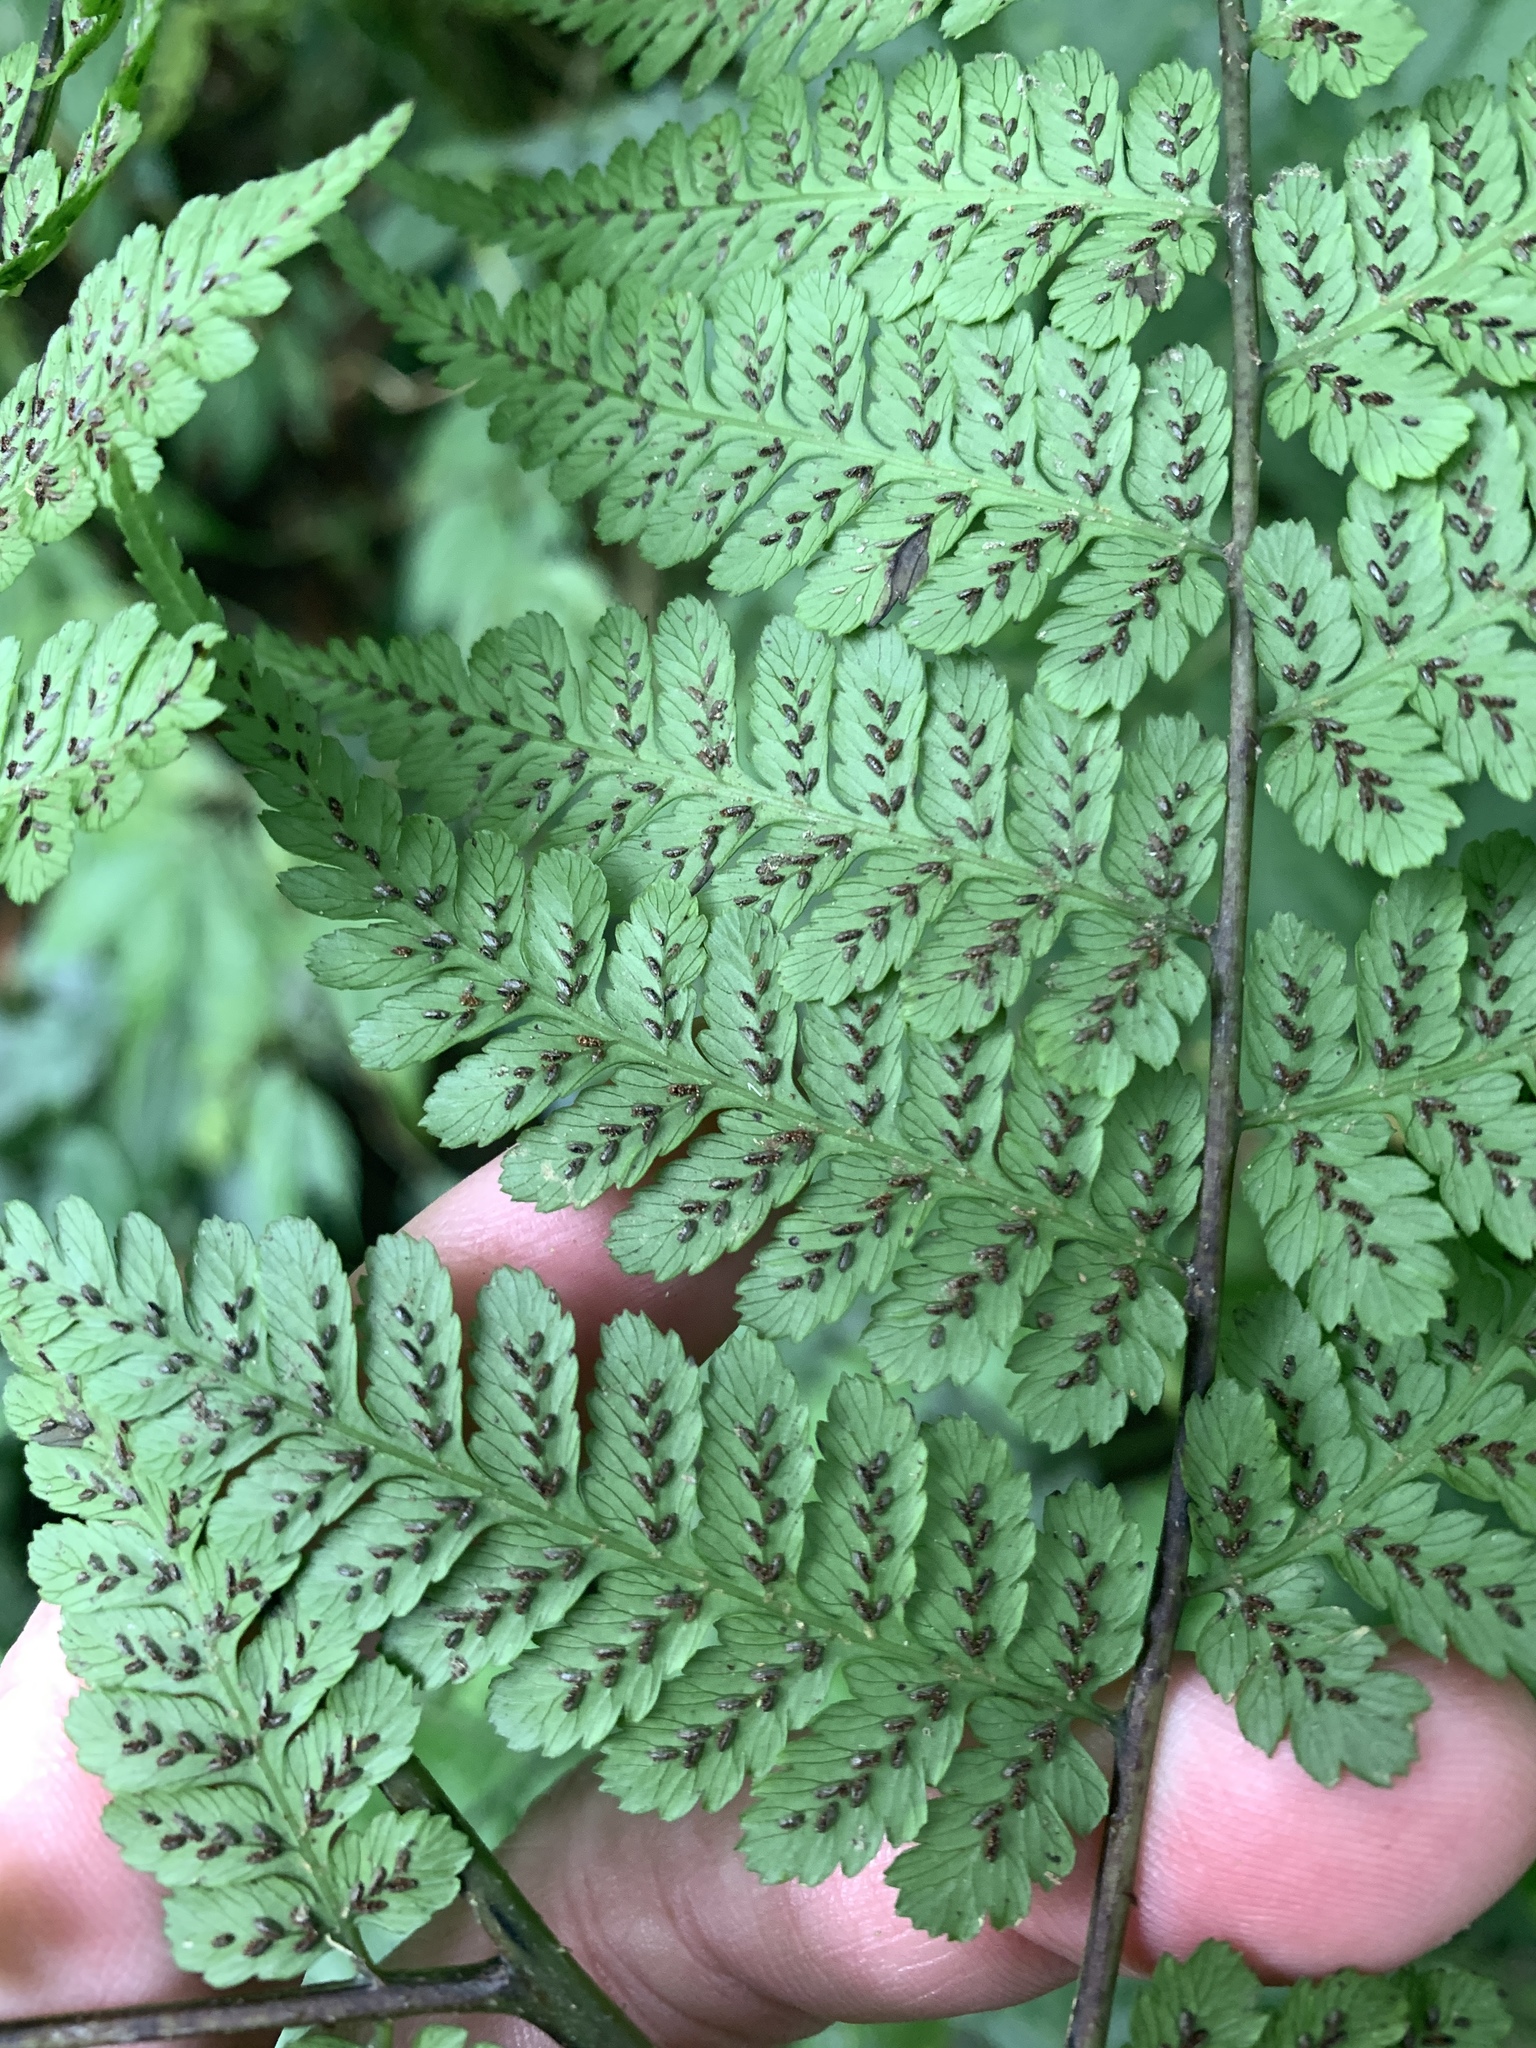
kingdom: Plantae
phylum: Tracheophyta
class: Polypodiopsida
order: Polypodiales
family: Athyriaceae
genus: Diplazium
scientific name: Diplazium kawakamii
